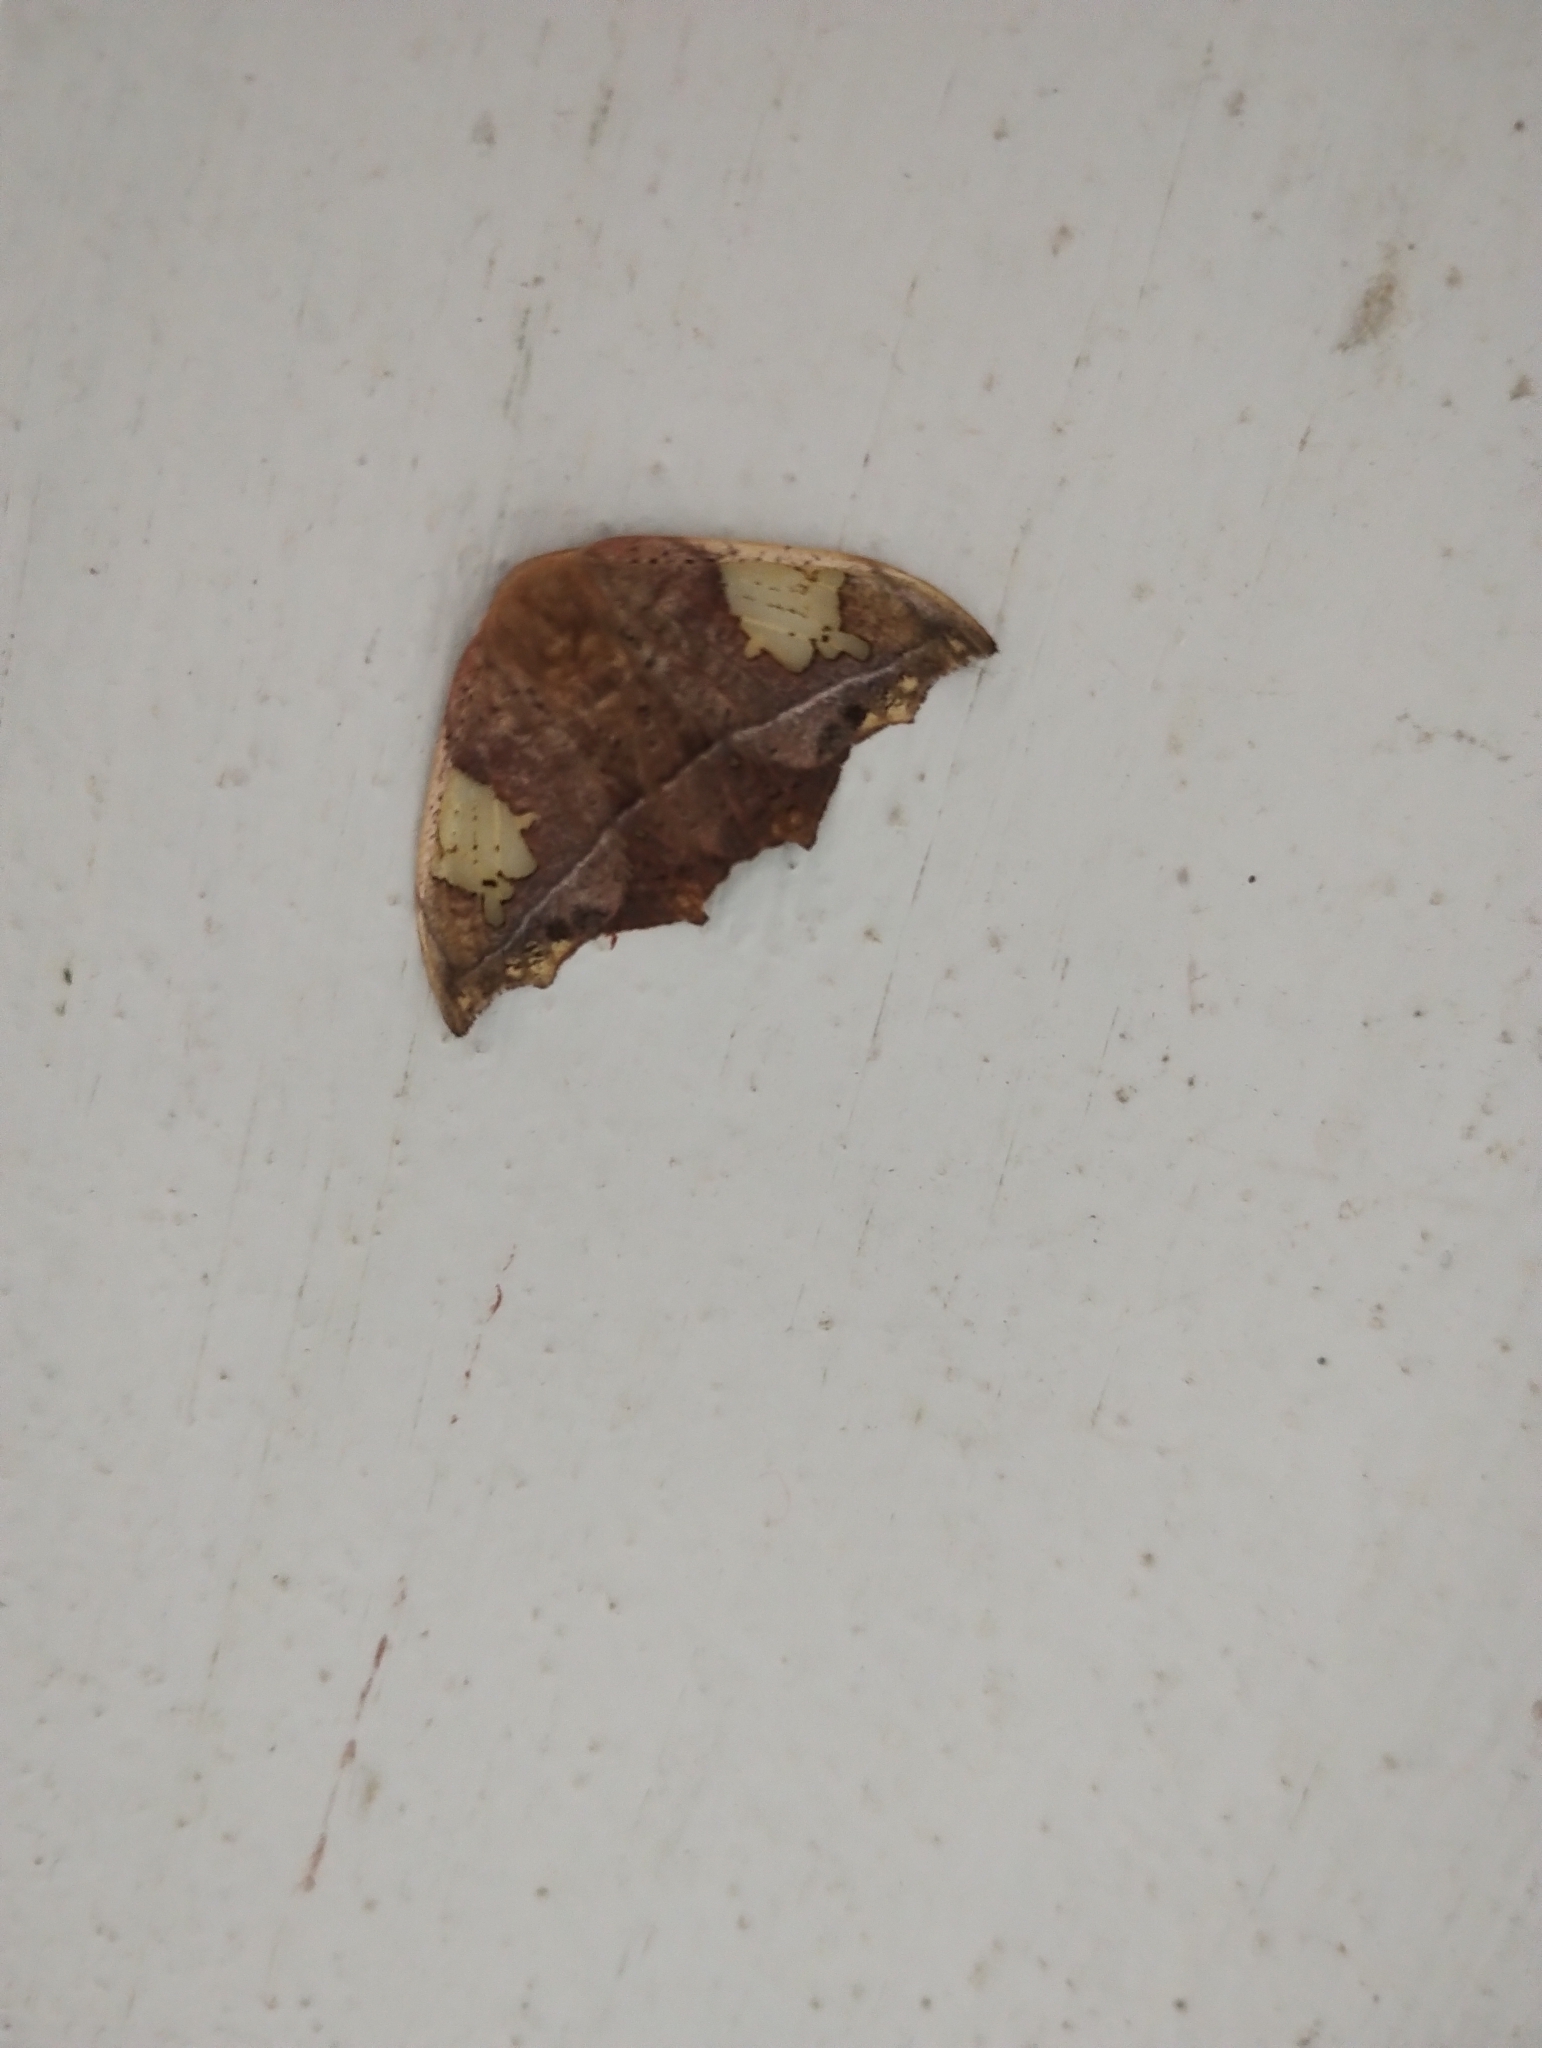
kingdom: Animalia
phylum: Arthropoda
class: Insecta
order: Lepidoptera
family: Drepanidae
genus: Spectroreta
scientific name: Spectroreta hyalodisca
